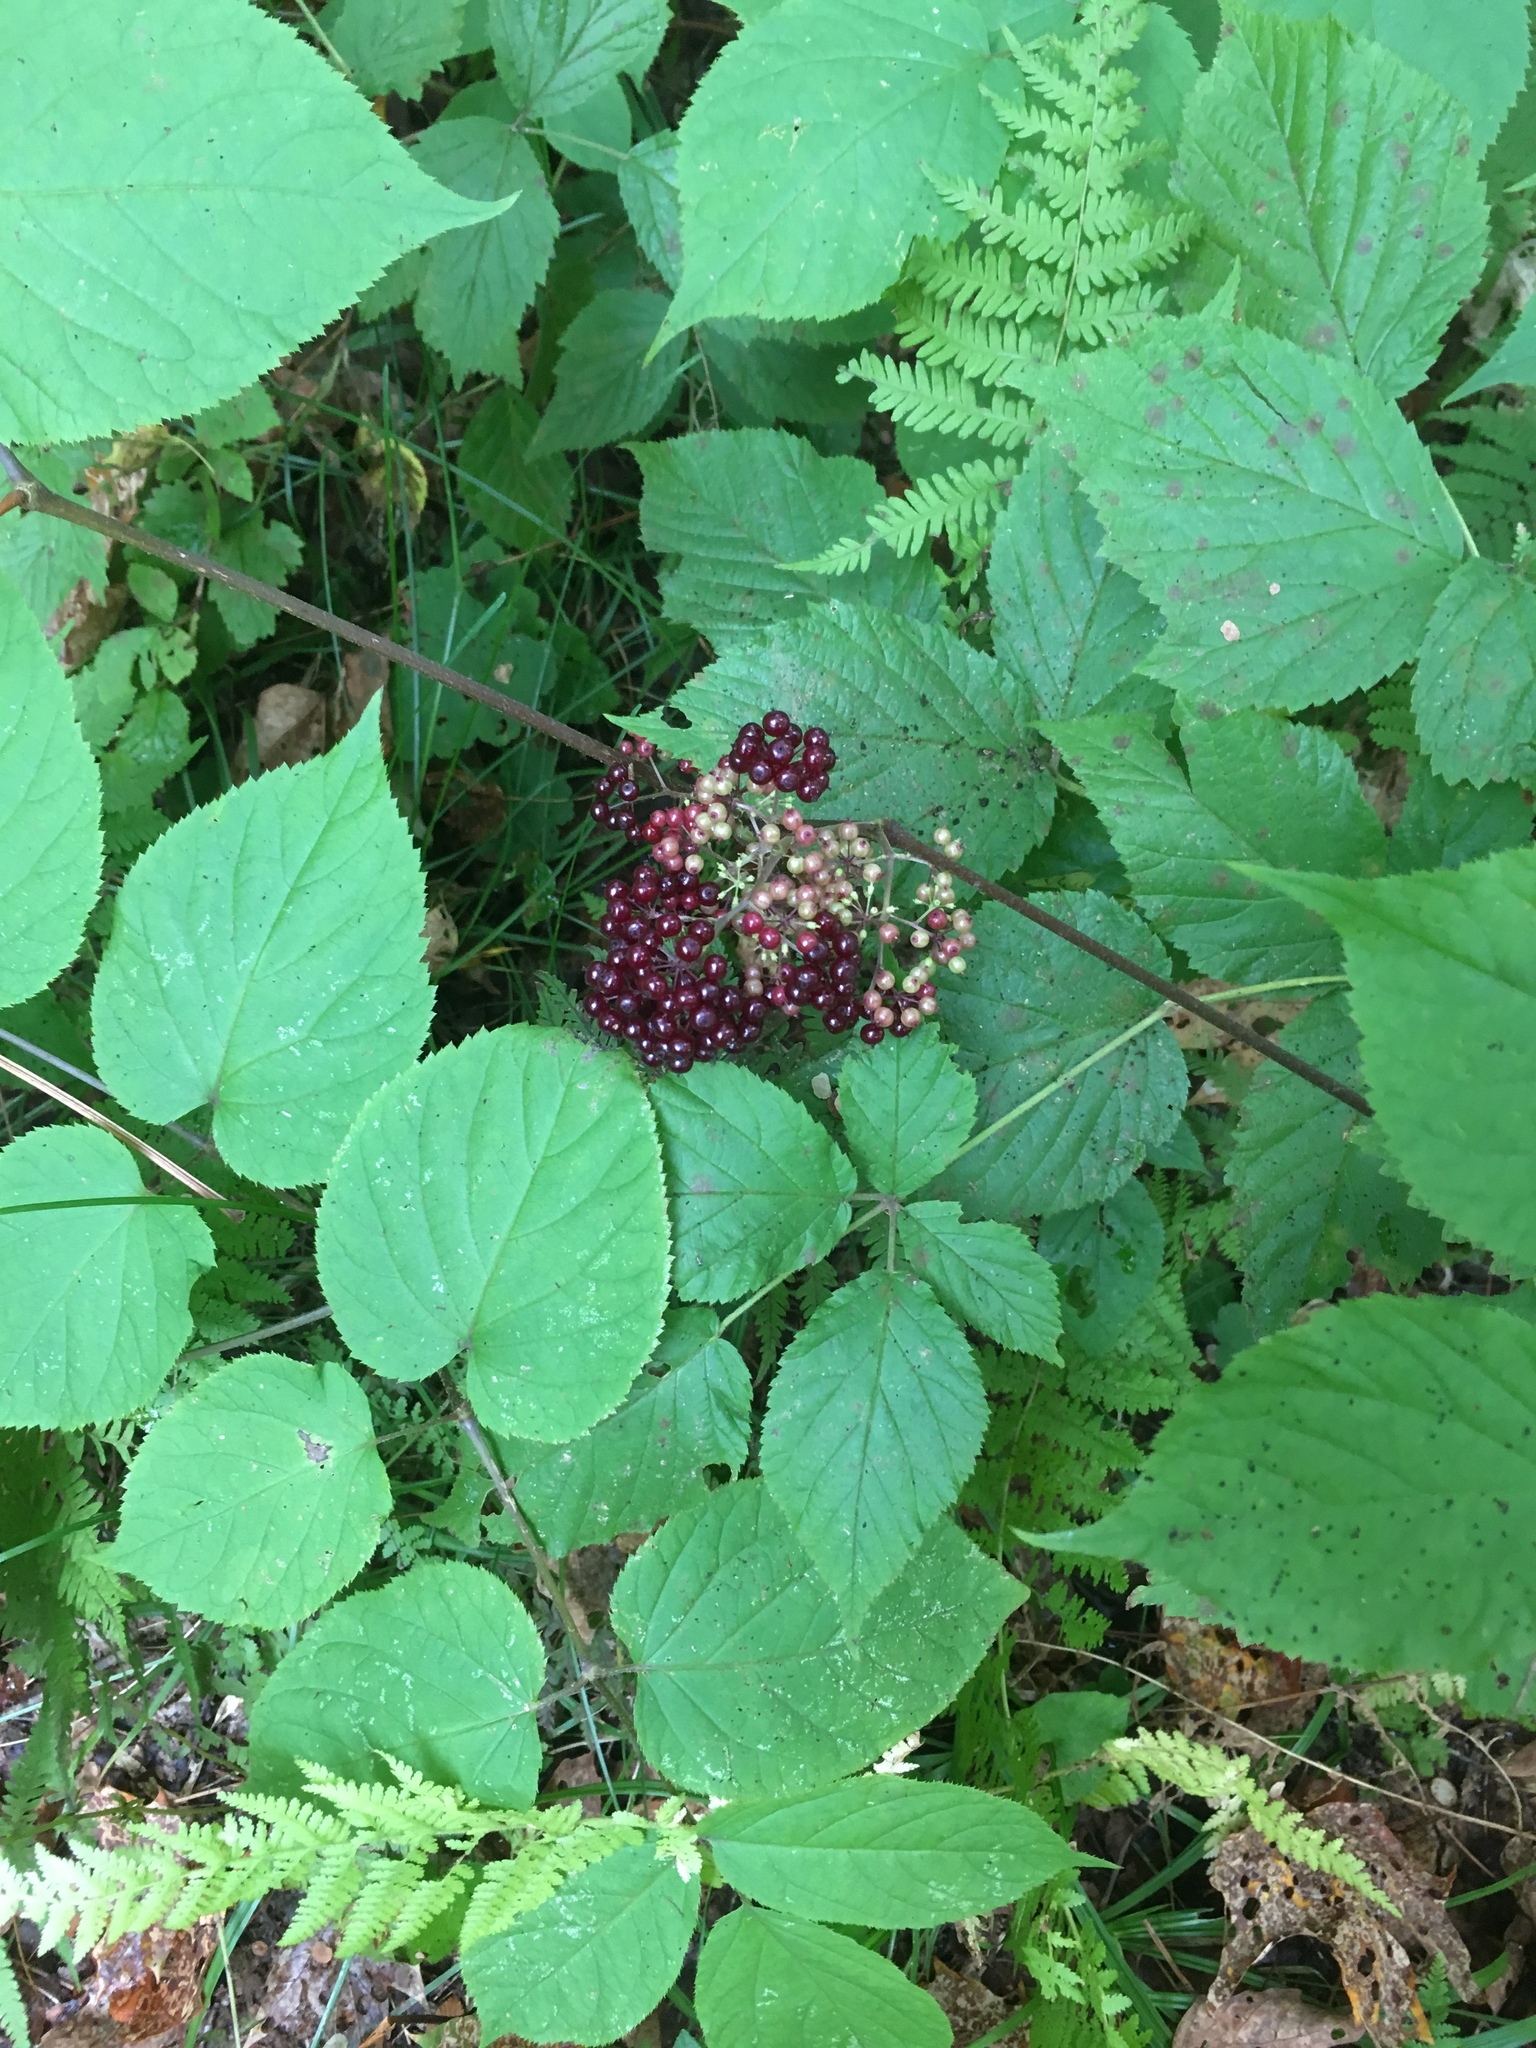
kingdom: Plantae
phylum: Tracheophyta
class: Magnoliopsida
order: Apiales
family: Araliaceae
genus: Aralia
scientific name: Aralia racemosa
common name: American-spikenard
